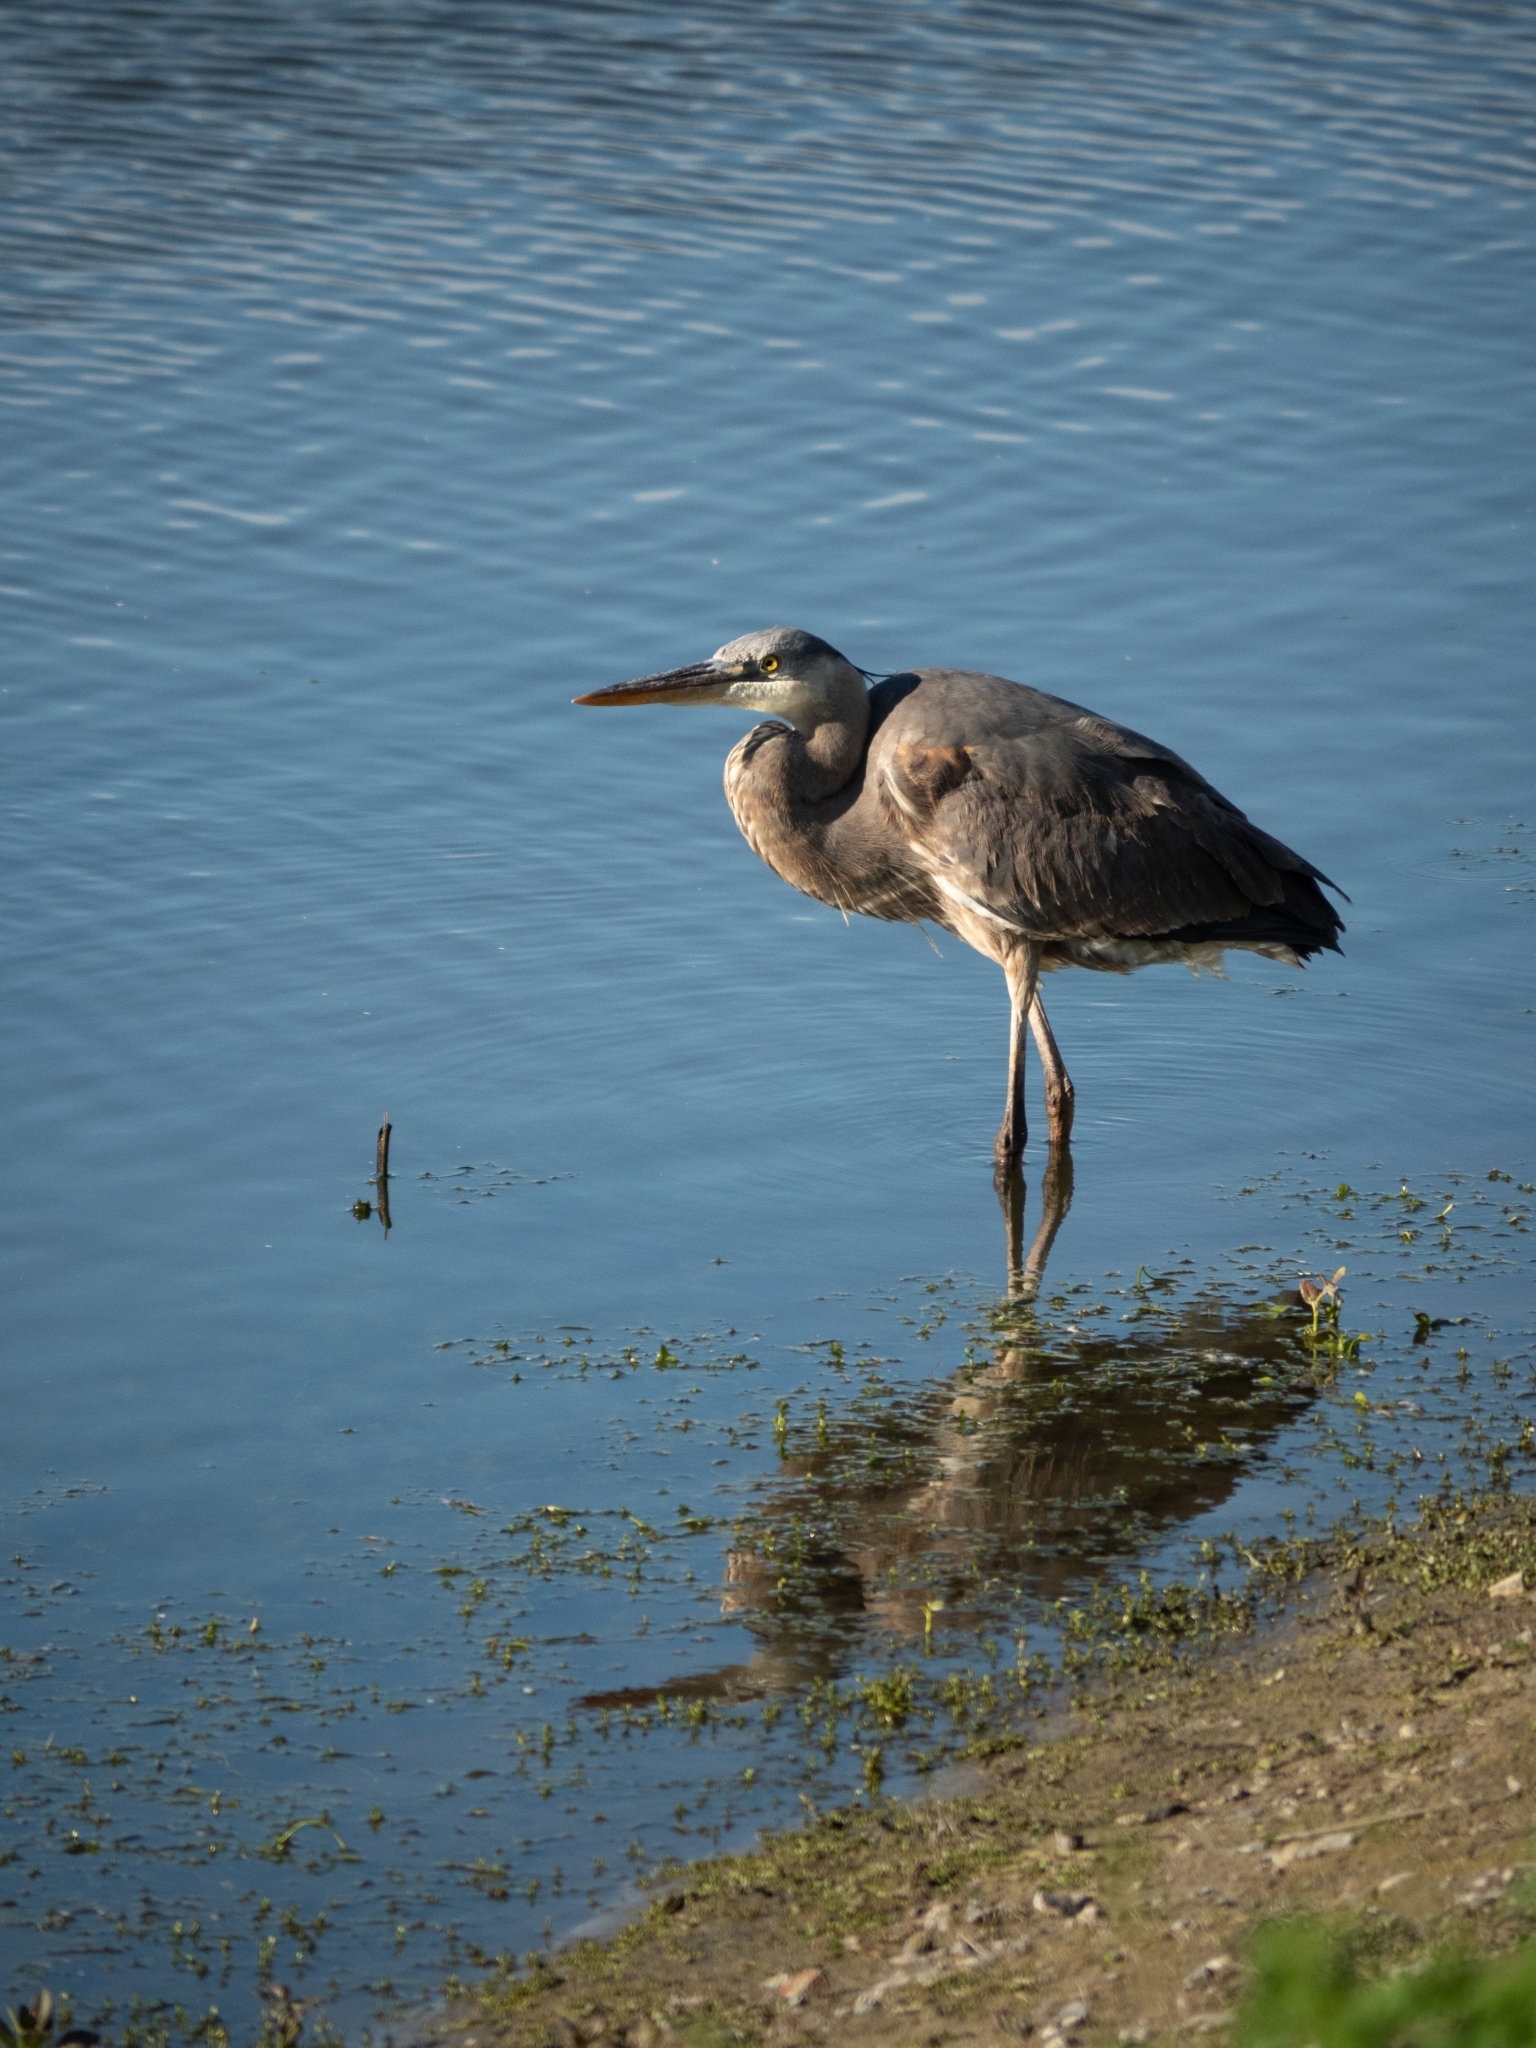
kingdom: Animalia
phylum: Chordata
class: Aves
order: Pelecaniformes
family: Ardeidae
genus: Ardea
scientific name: Ardea herodias
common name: Great blue heron
